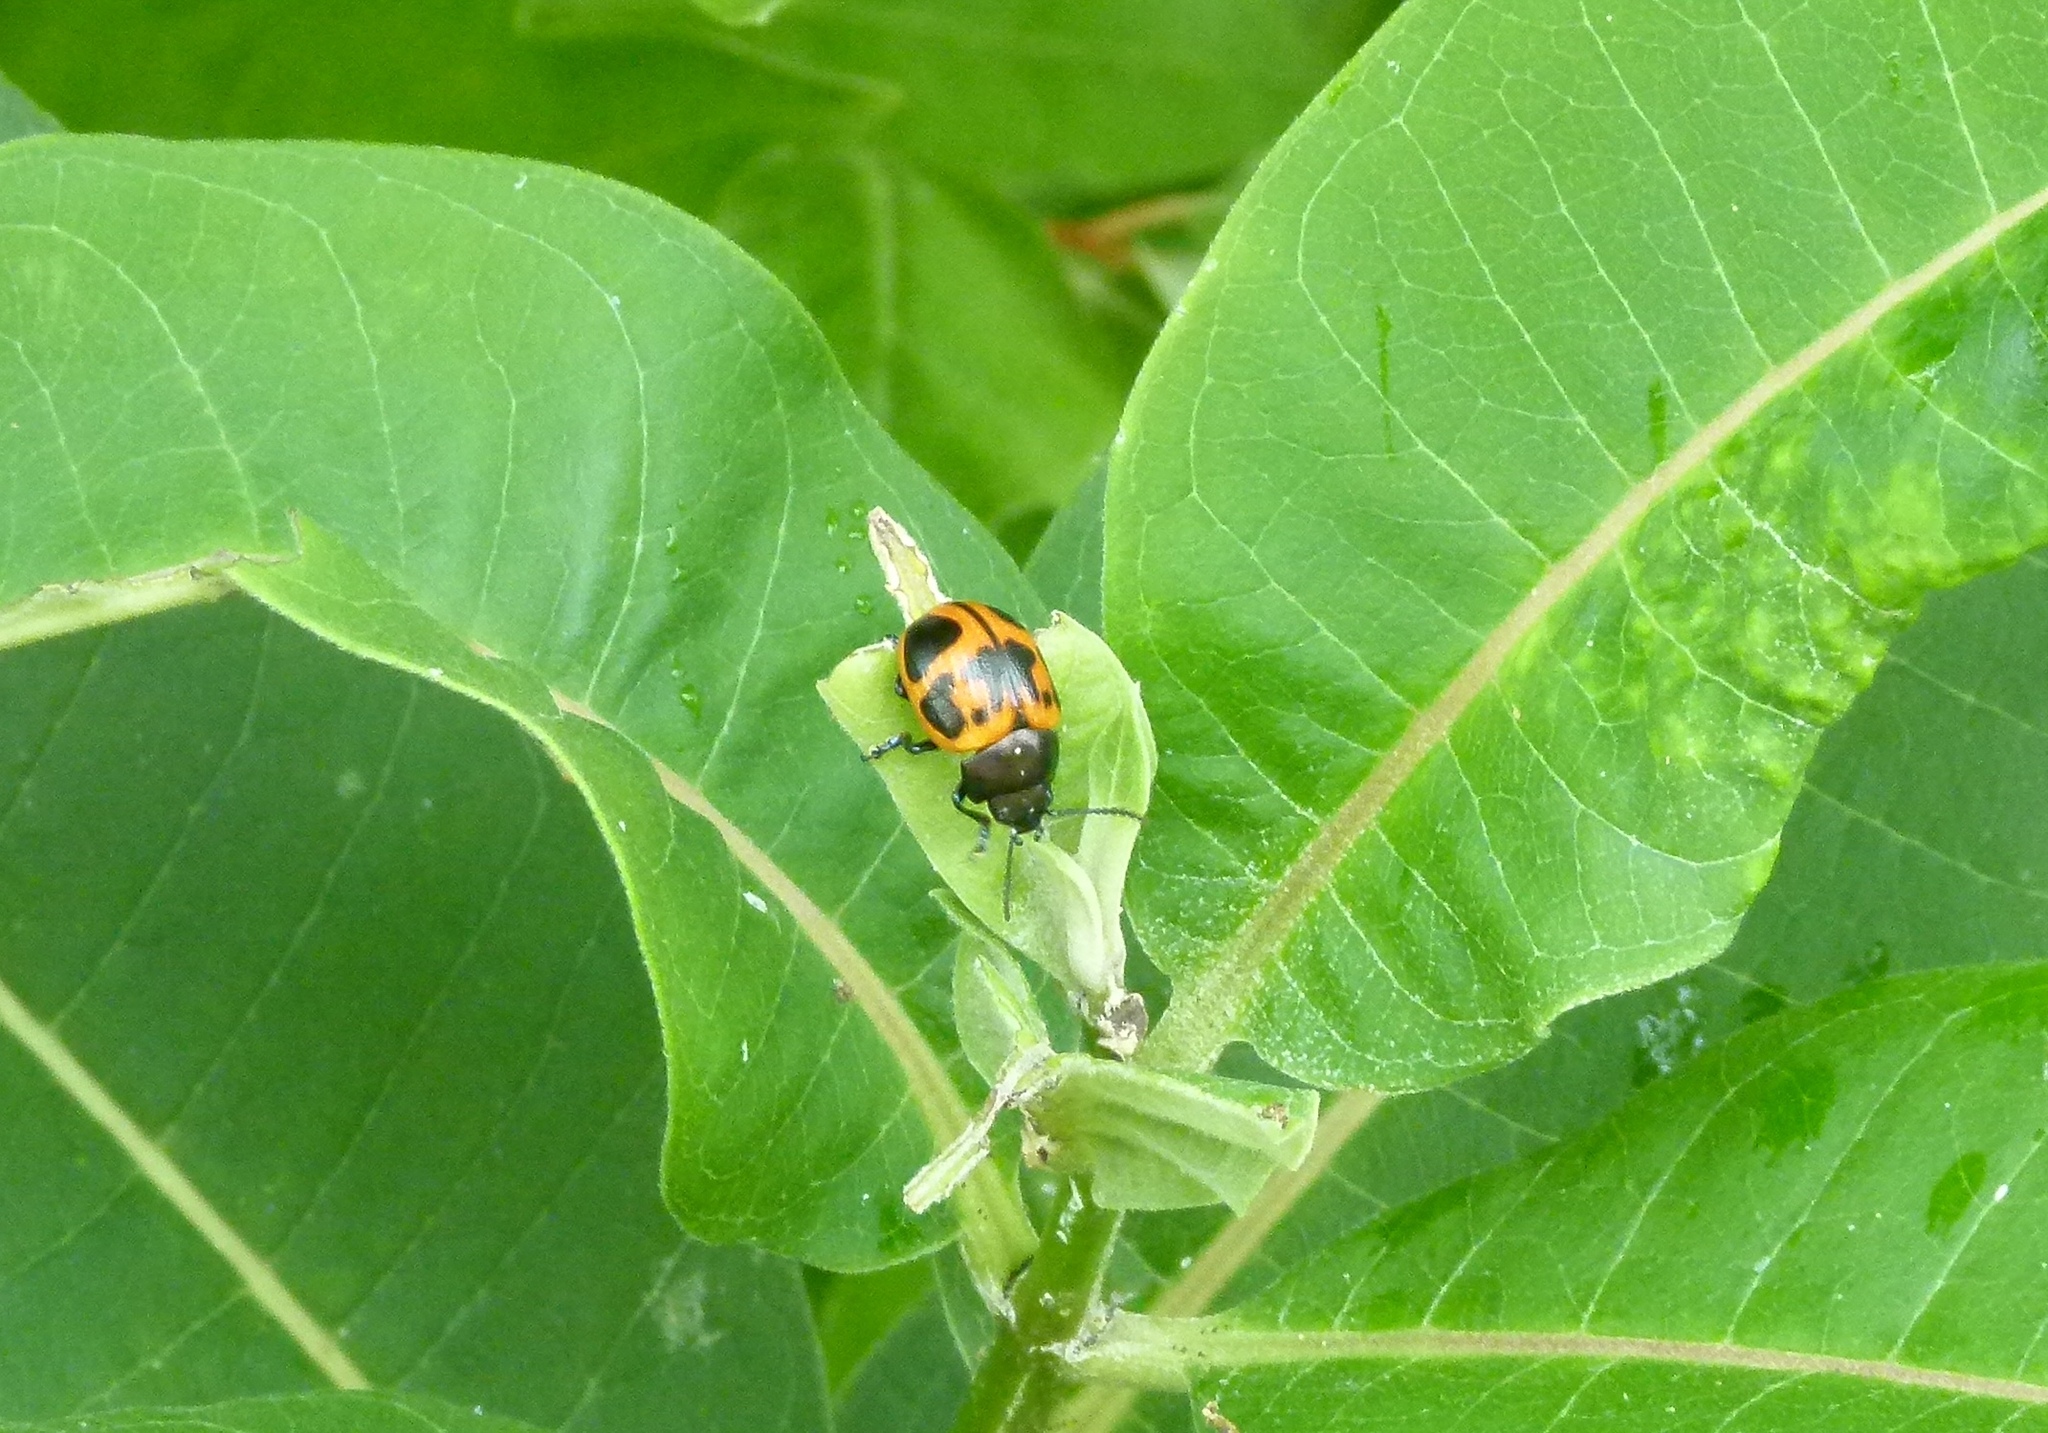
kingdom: Animalia
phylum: Arthropoda
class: Insecta
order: Coleoptera
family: Chrysomelidae
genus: Labidomera
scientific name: Labidomera clivicollis
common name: Swamp milkweed leaf beetle
